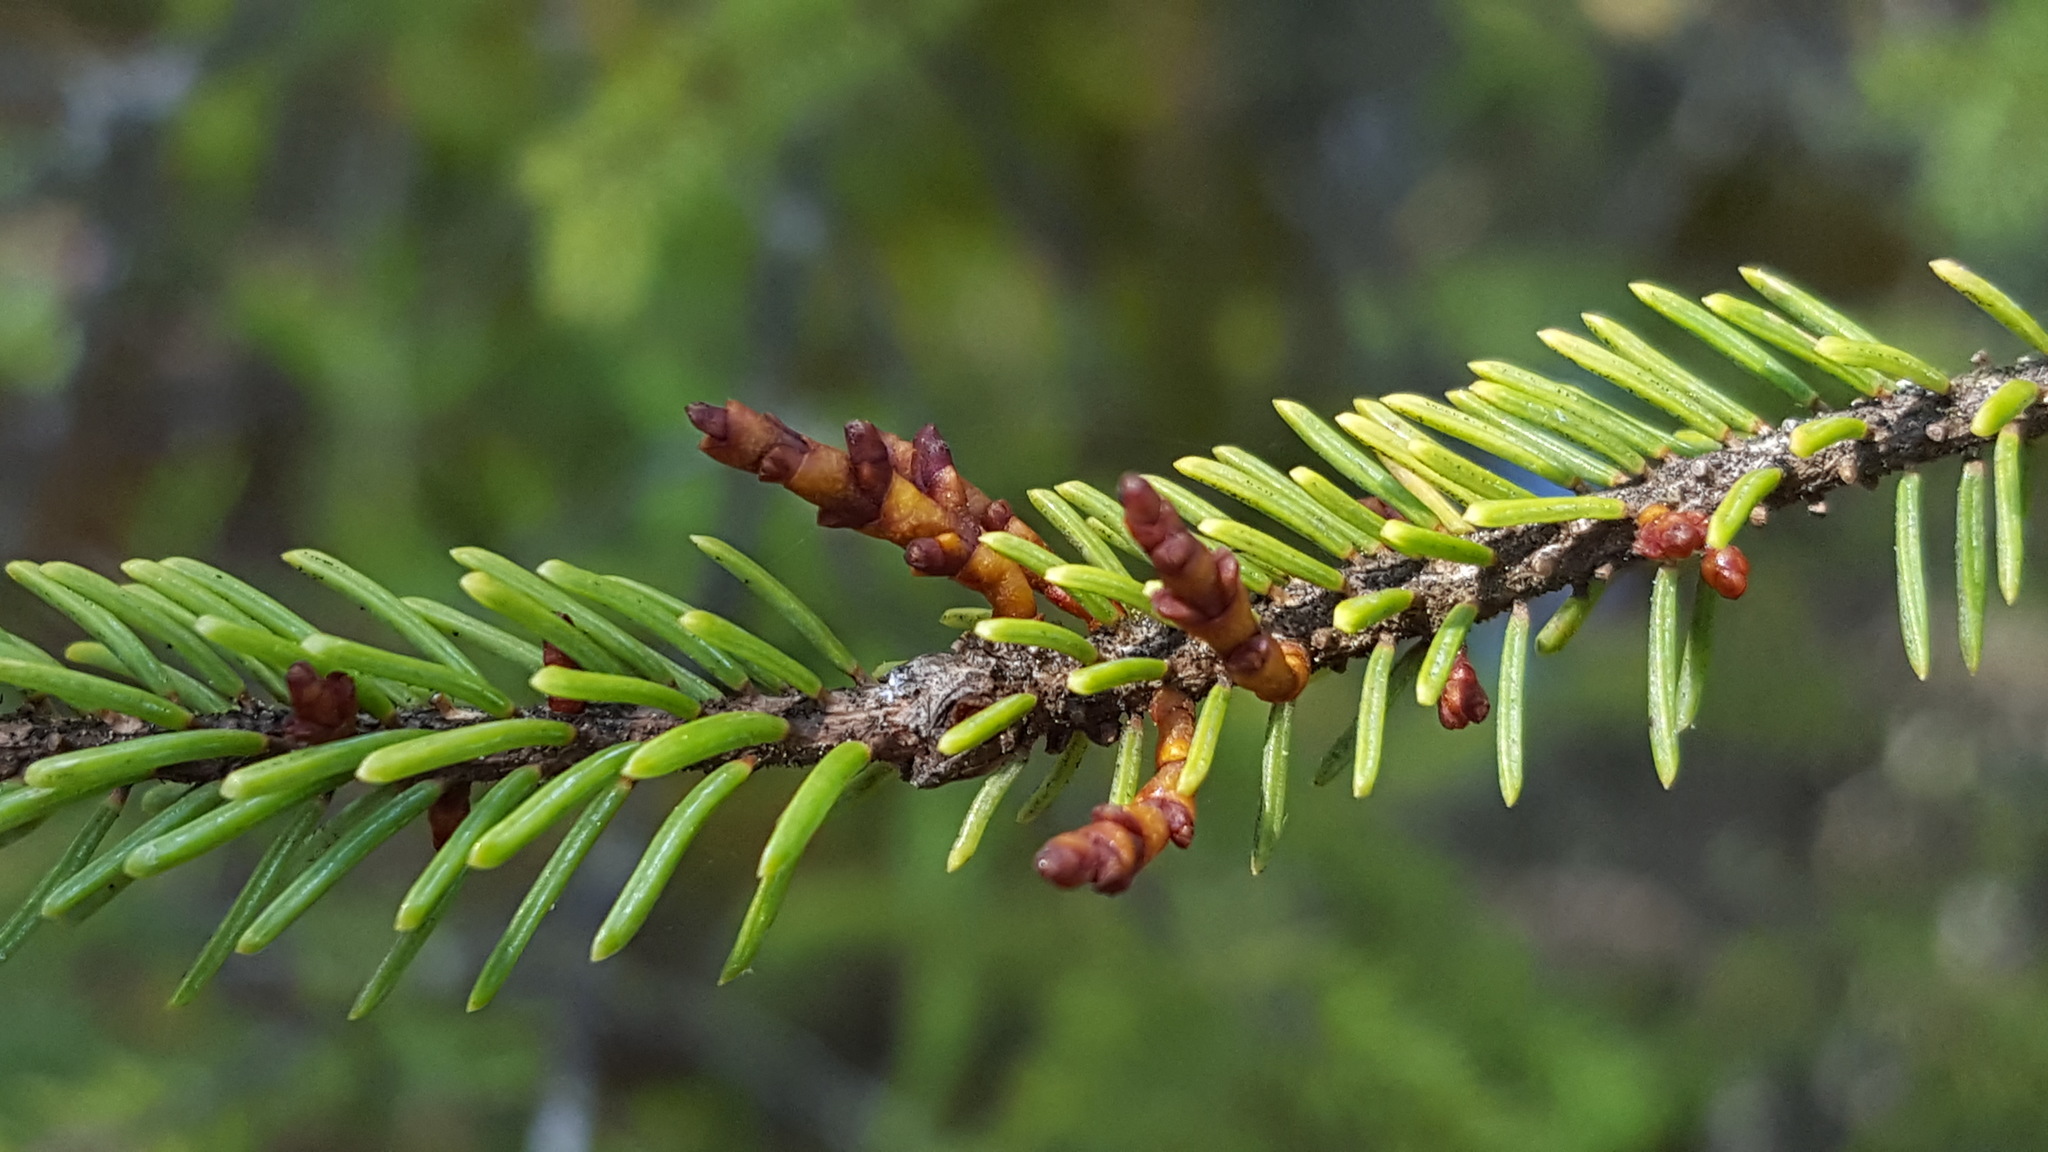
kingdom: Plantae
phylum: Tracheophyta
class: Magnoliopsida
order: Santalales
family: Viscaceae
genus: Arceuthobium
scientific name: Arceuthobium pusillum
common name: Dwarf-mistletoe
